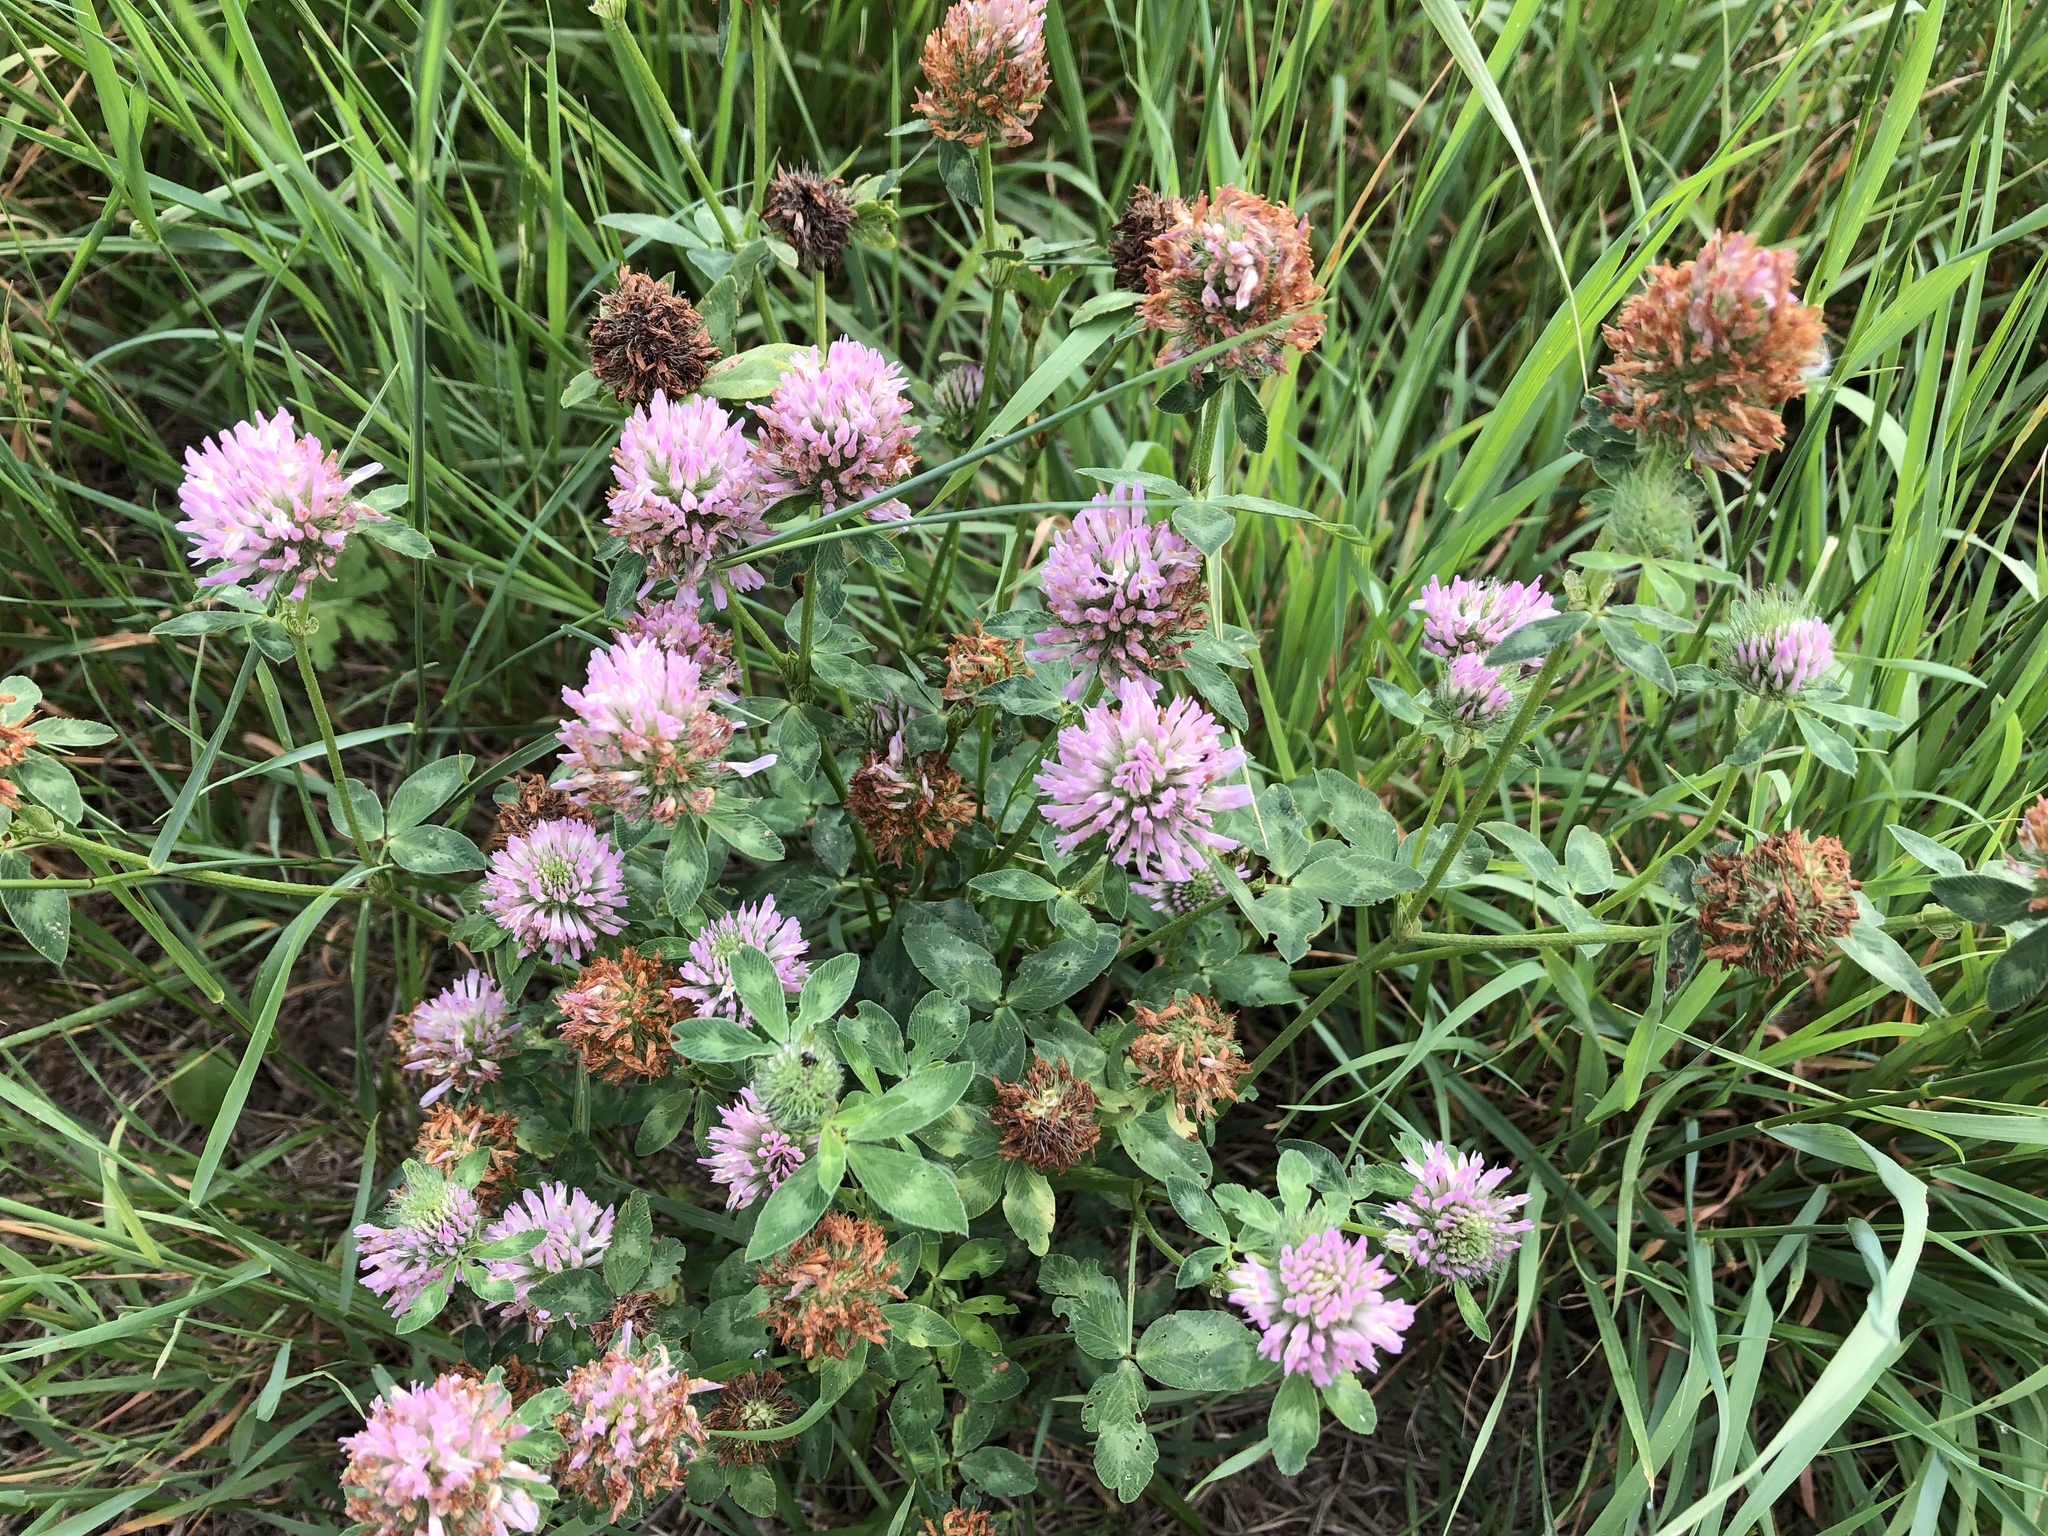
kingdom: Plantae
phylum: Tracheophyta
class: Magnoliopsida
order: Fabales
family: Fabaceae
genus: Trifolium
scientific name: Trifolium pratense
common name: Red clover
